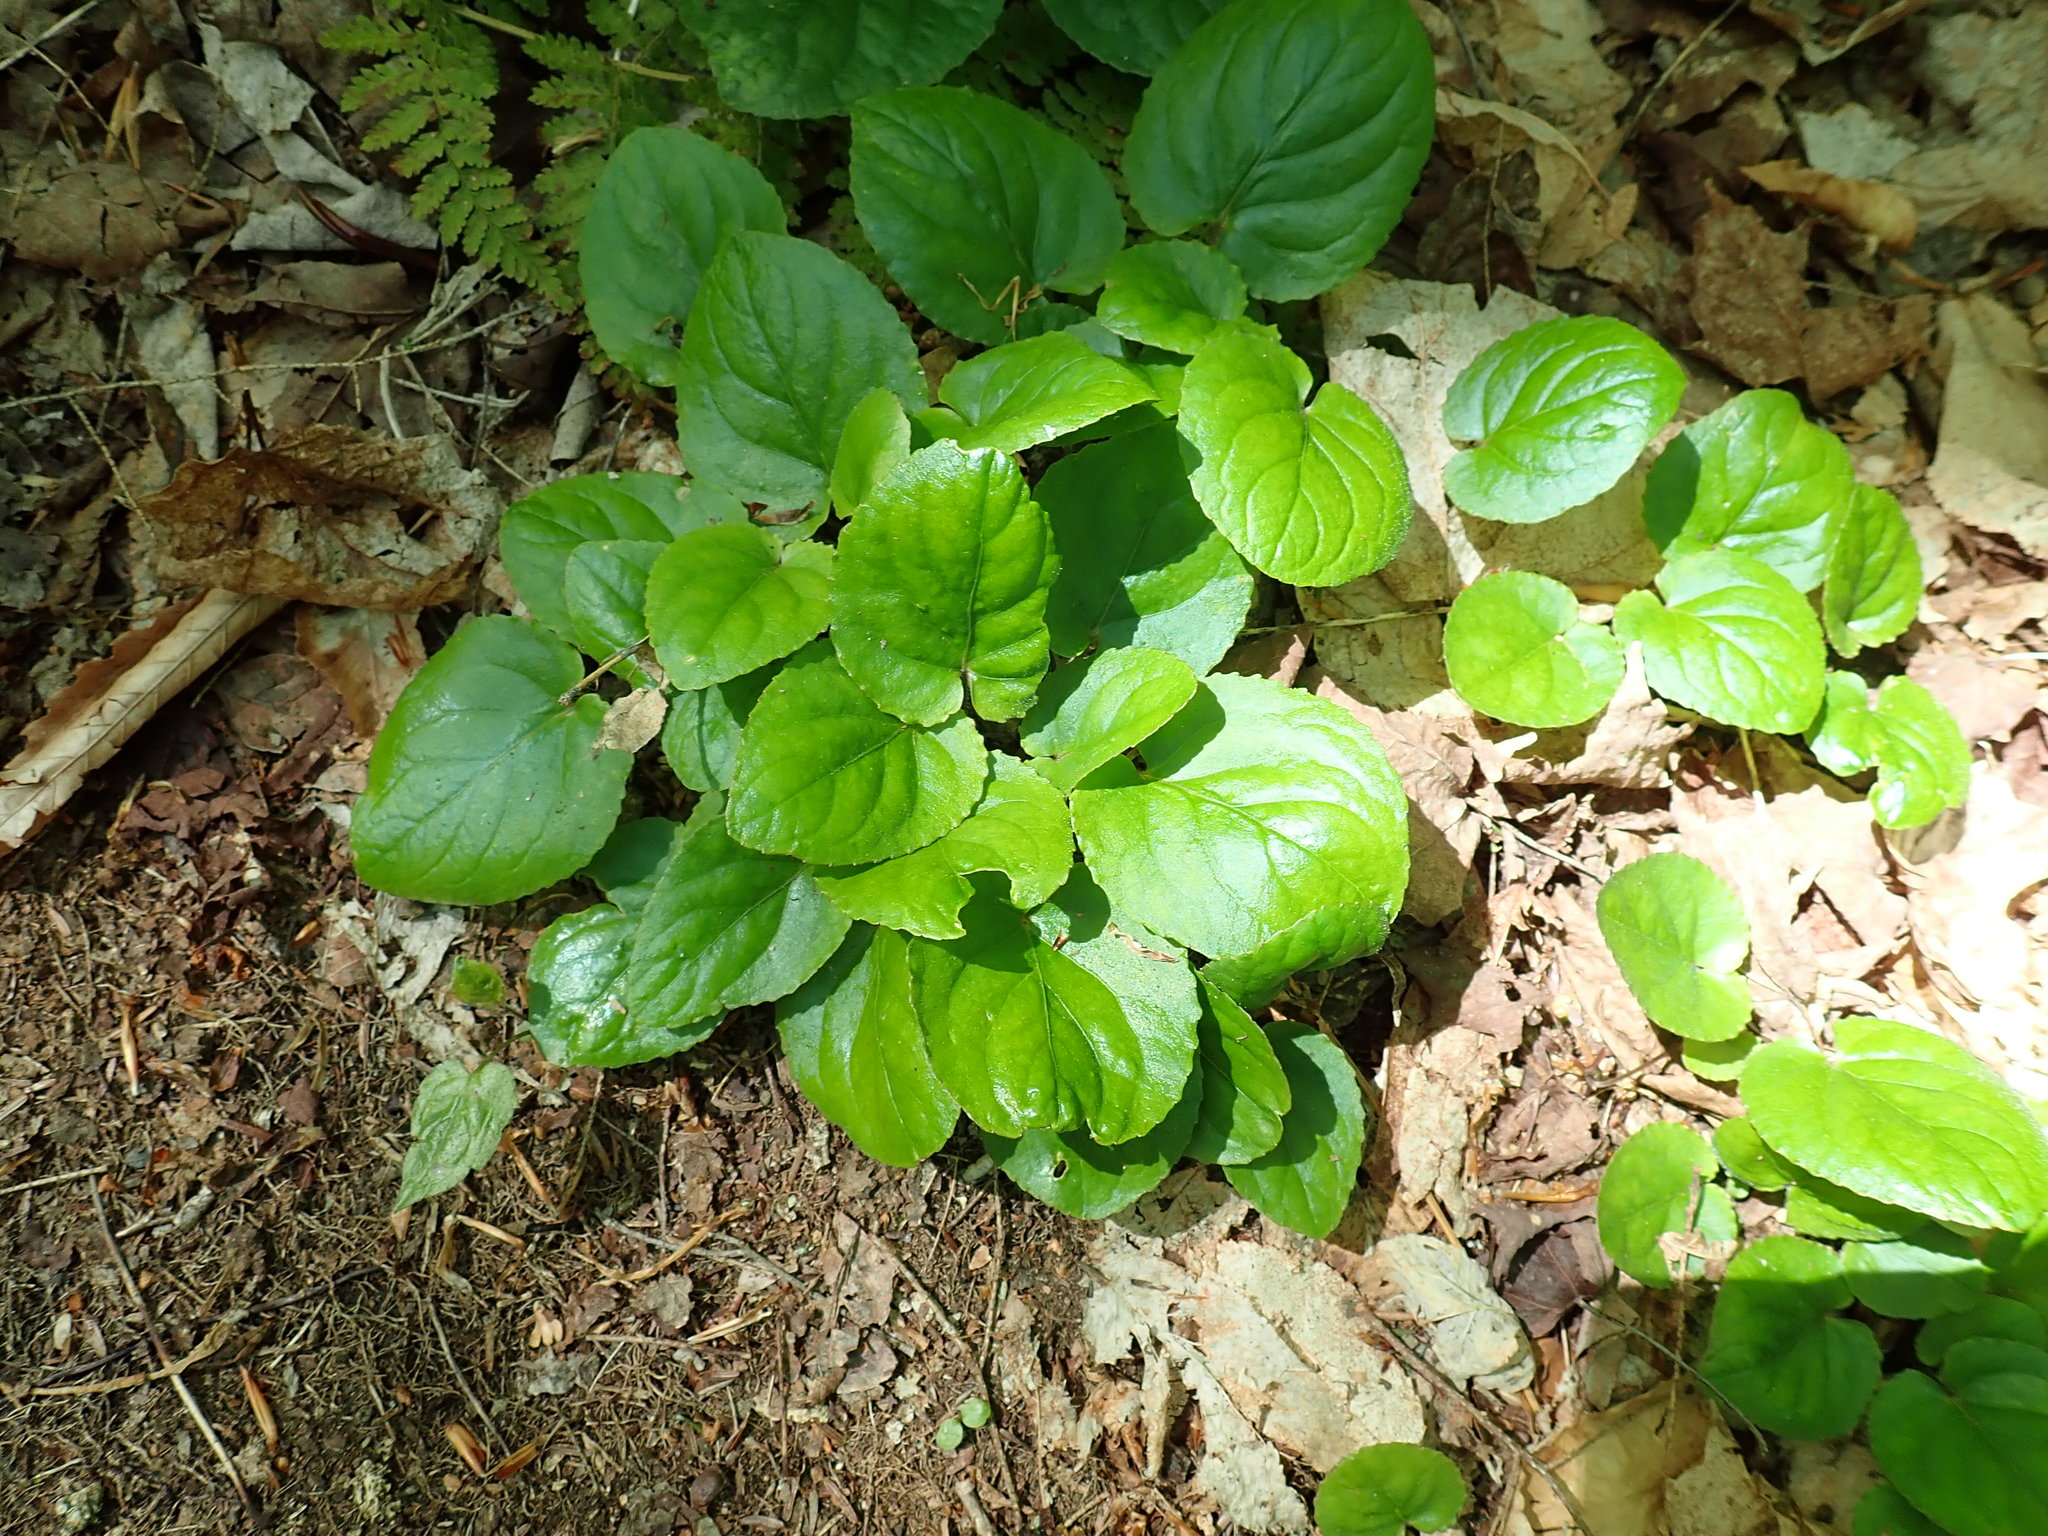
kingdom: Plantae
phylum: Tracheophyta
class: Magnoliopsida
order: Malpighiales
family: Violaceae
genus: Viola
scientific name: Viola rotundifolia
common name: Early yellow violet
